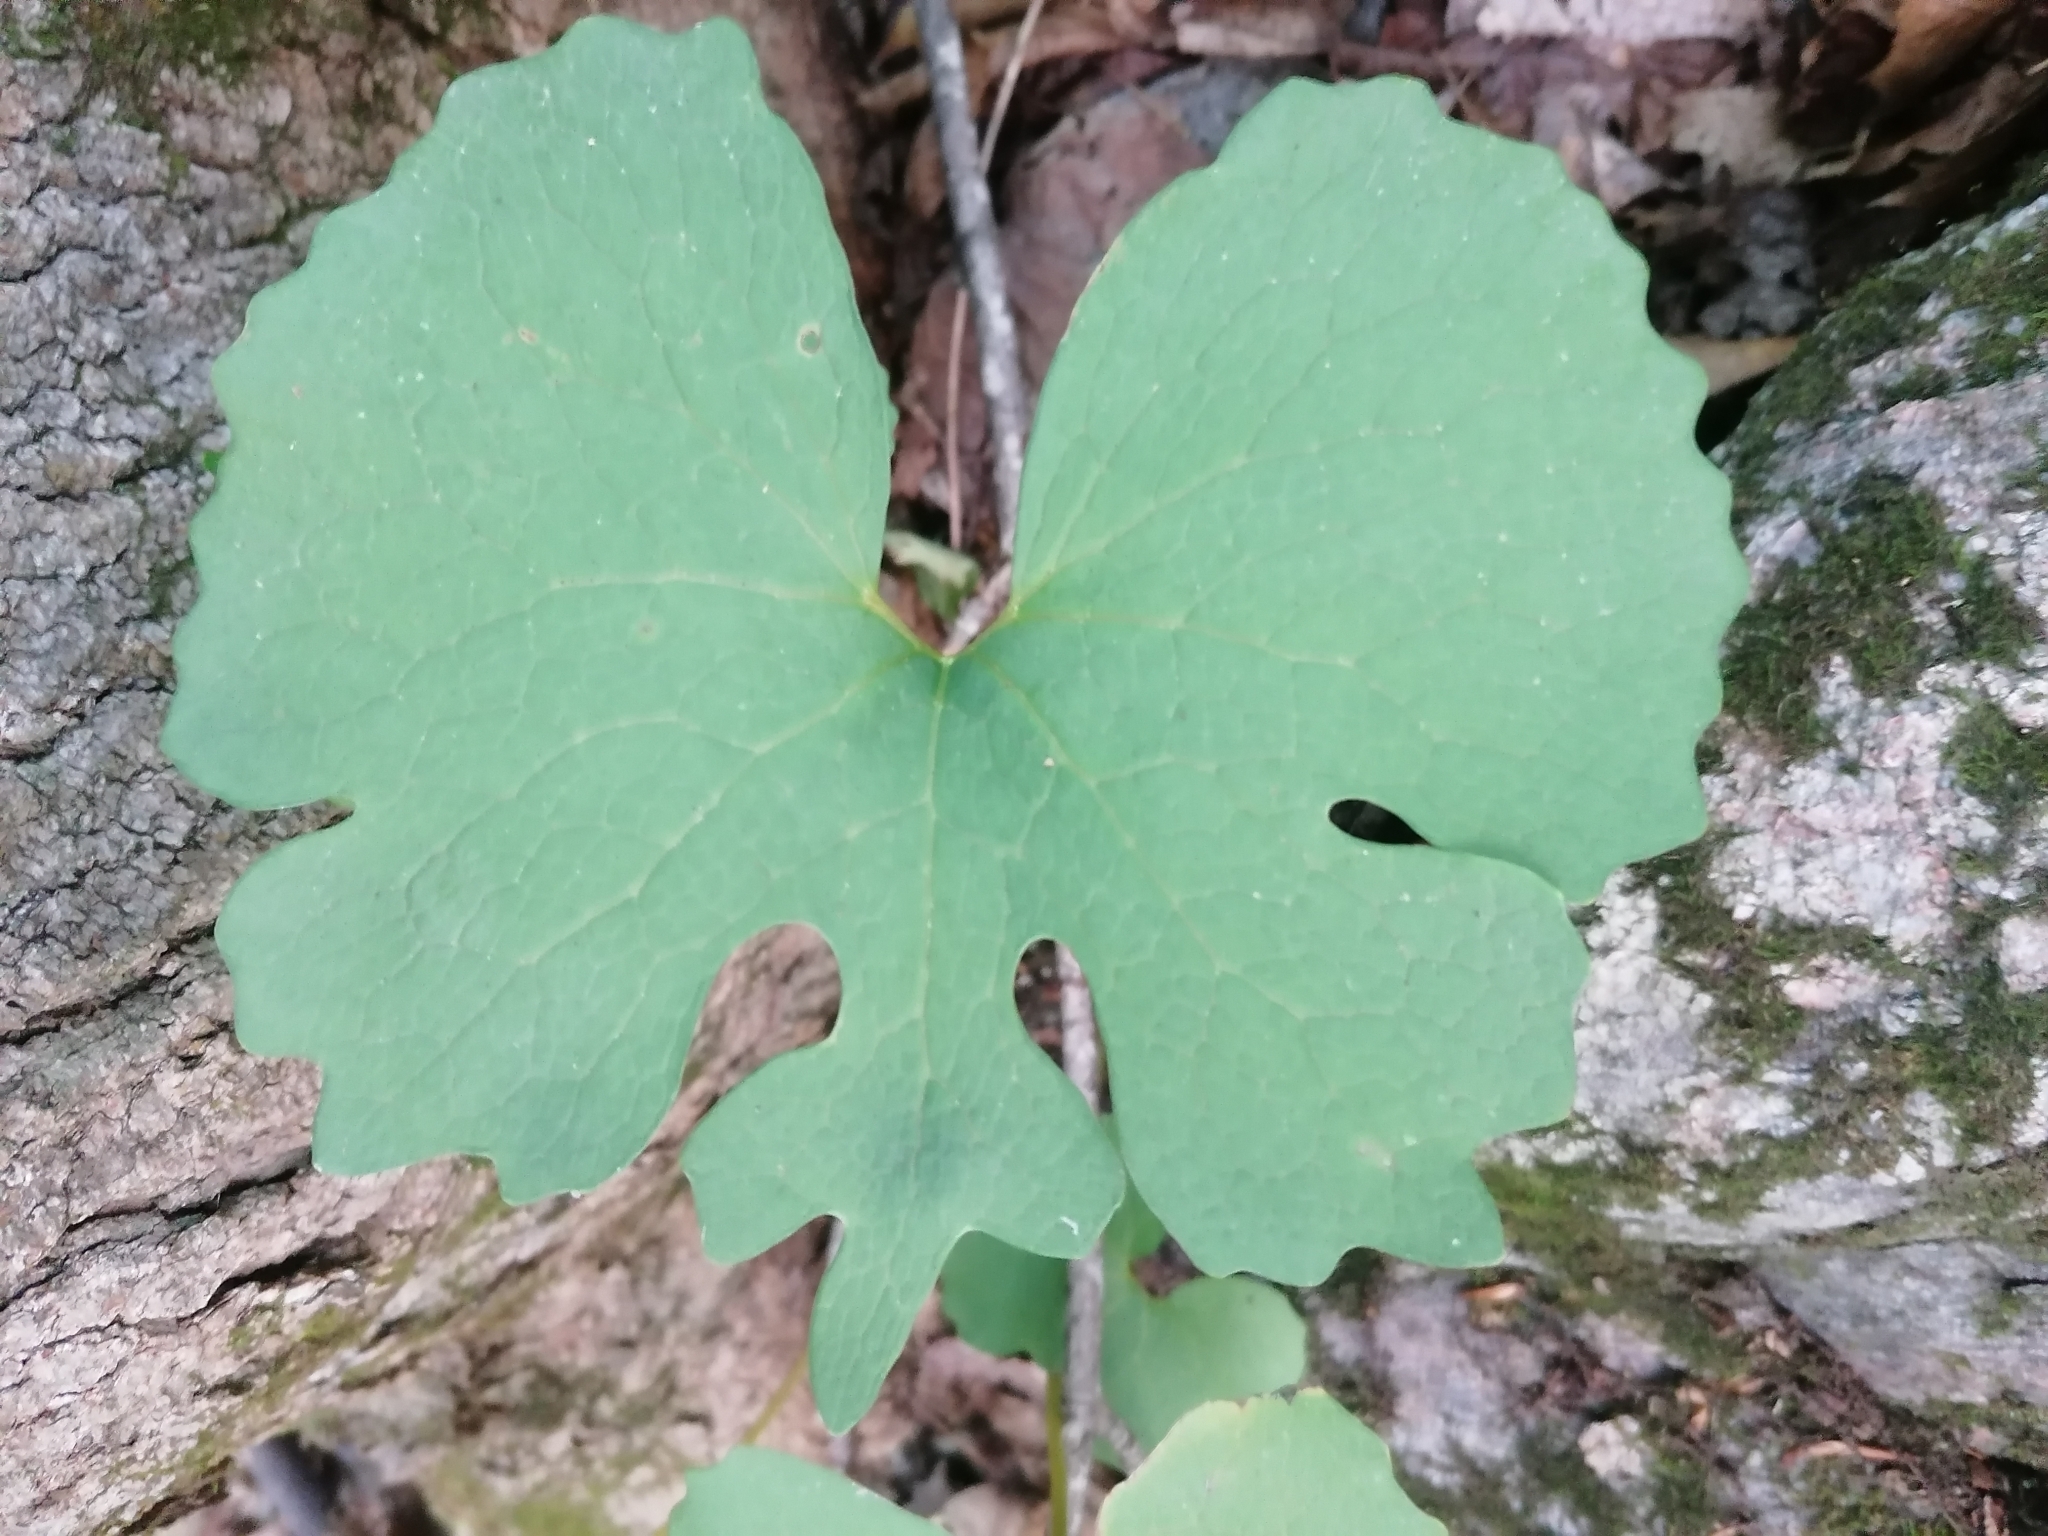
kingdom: Plantae
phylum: Tracheophyta
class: Magnoliopsida
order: Ranunculales
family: Papaveraceae
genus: Sanguinaria
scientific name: Sanguinaria canadensis
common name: Bloodroot
